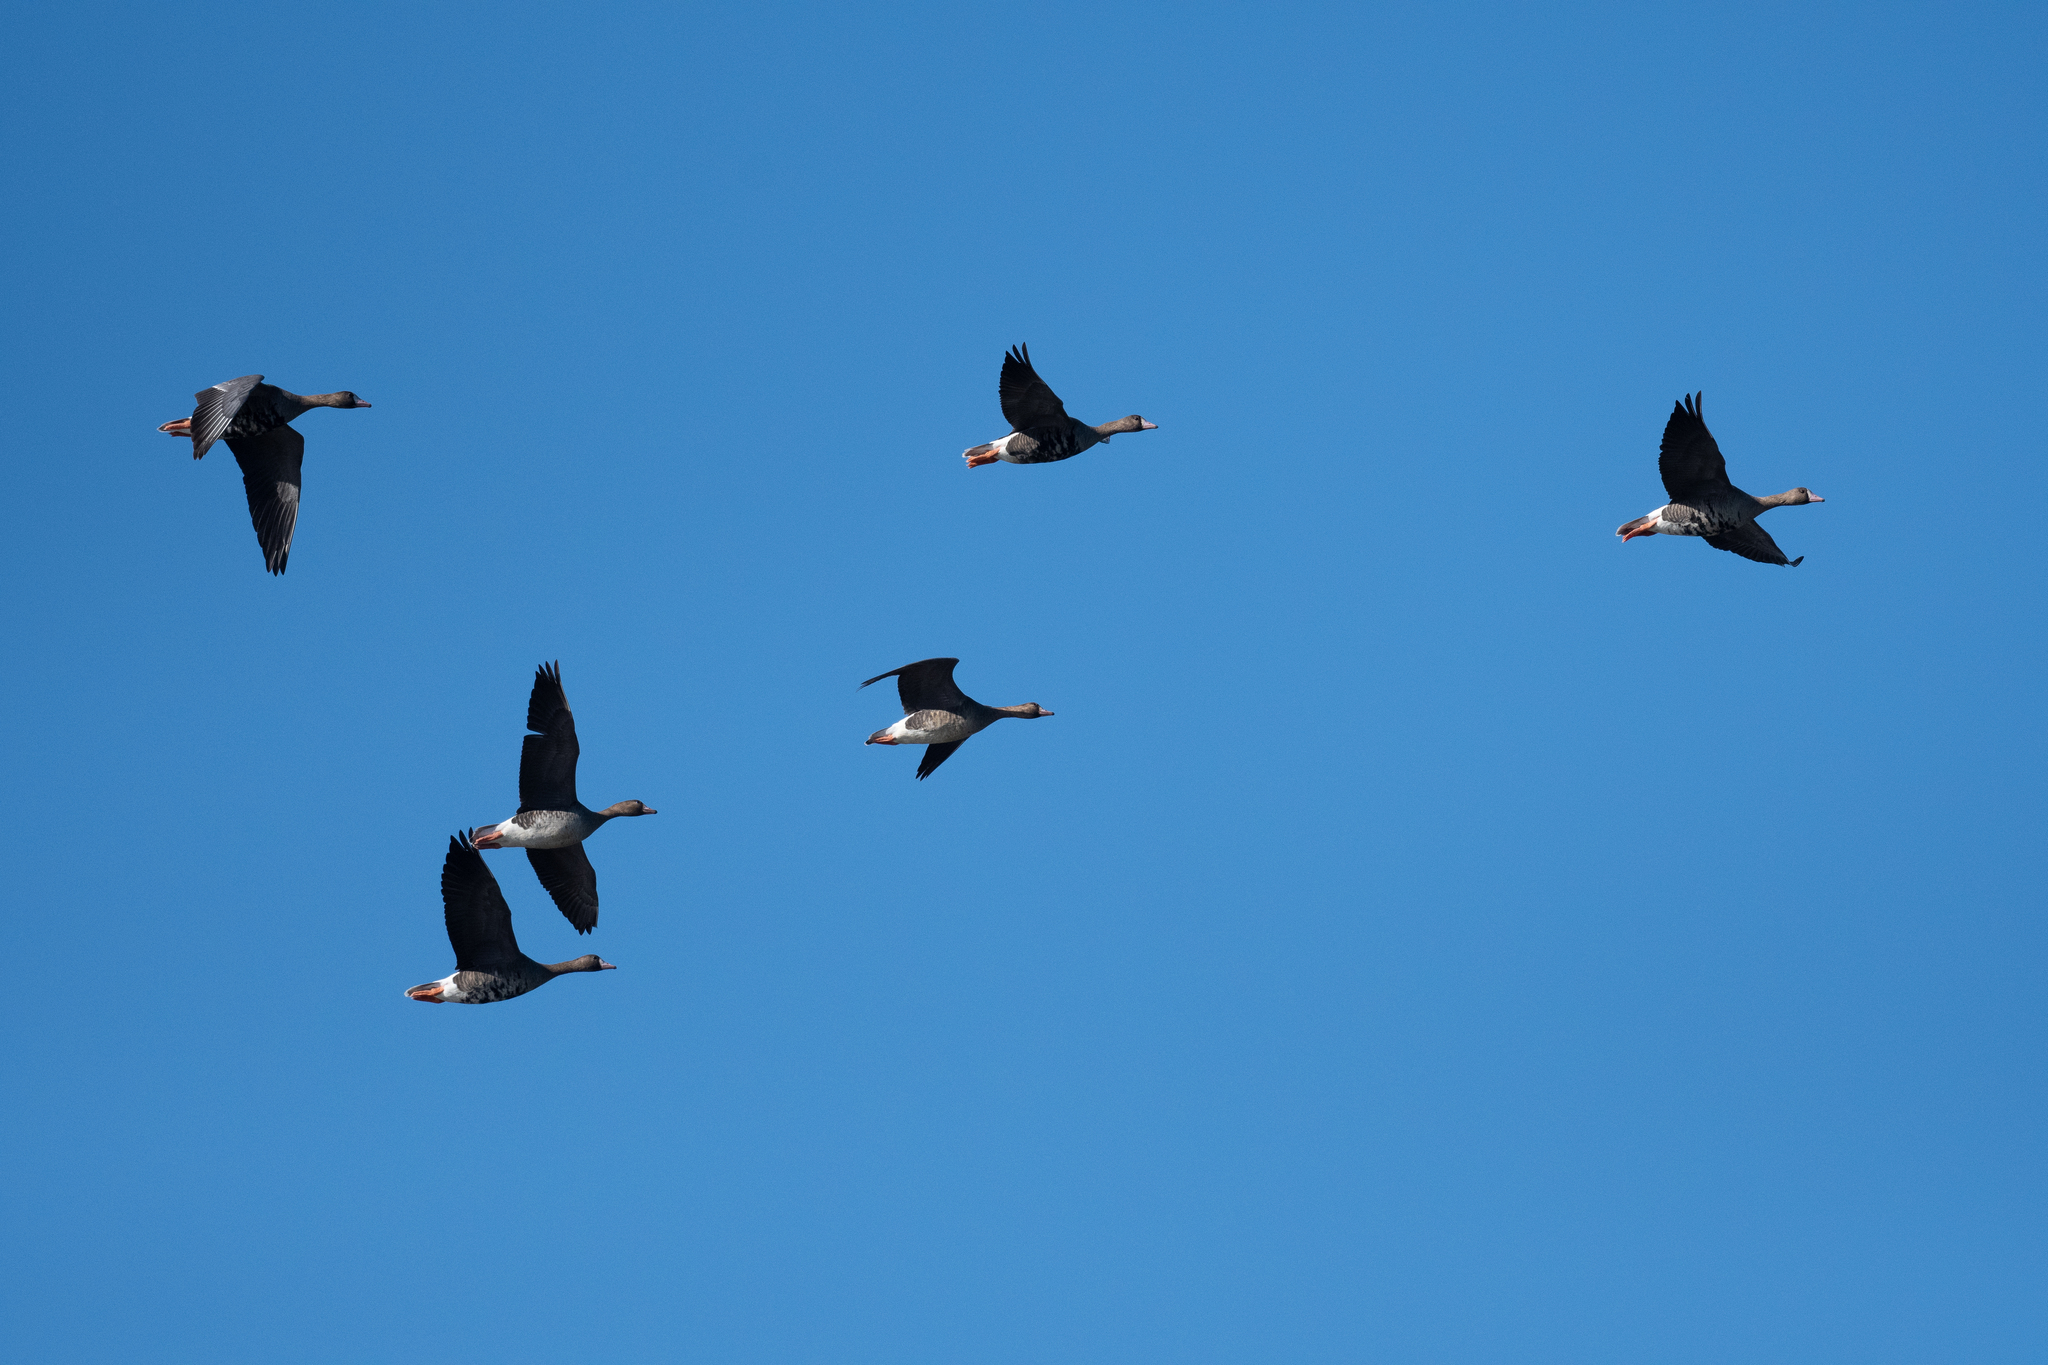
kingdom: Animalia
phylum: Chordata
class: Aves
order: Anseriformes
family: Anatidae
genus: Anser
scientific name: Anser albifrons
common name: Greater white-fronted goose
